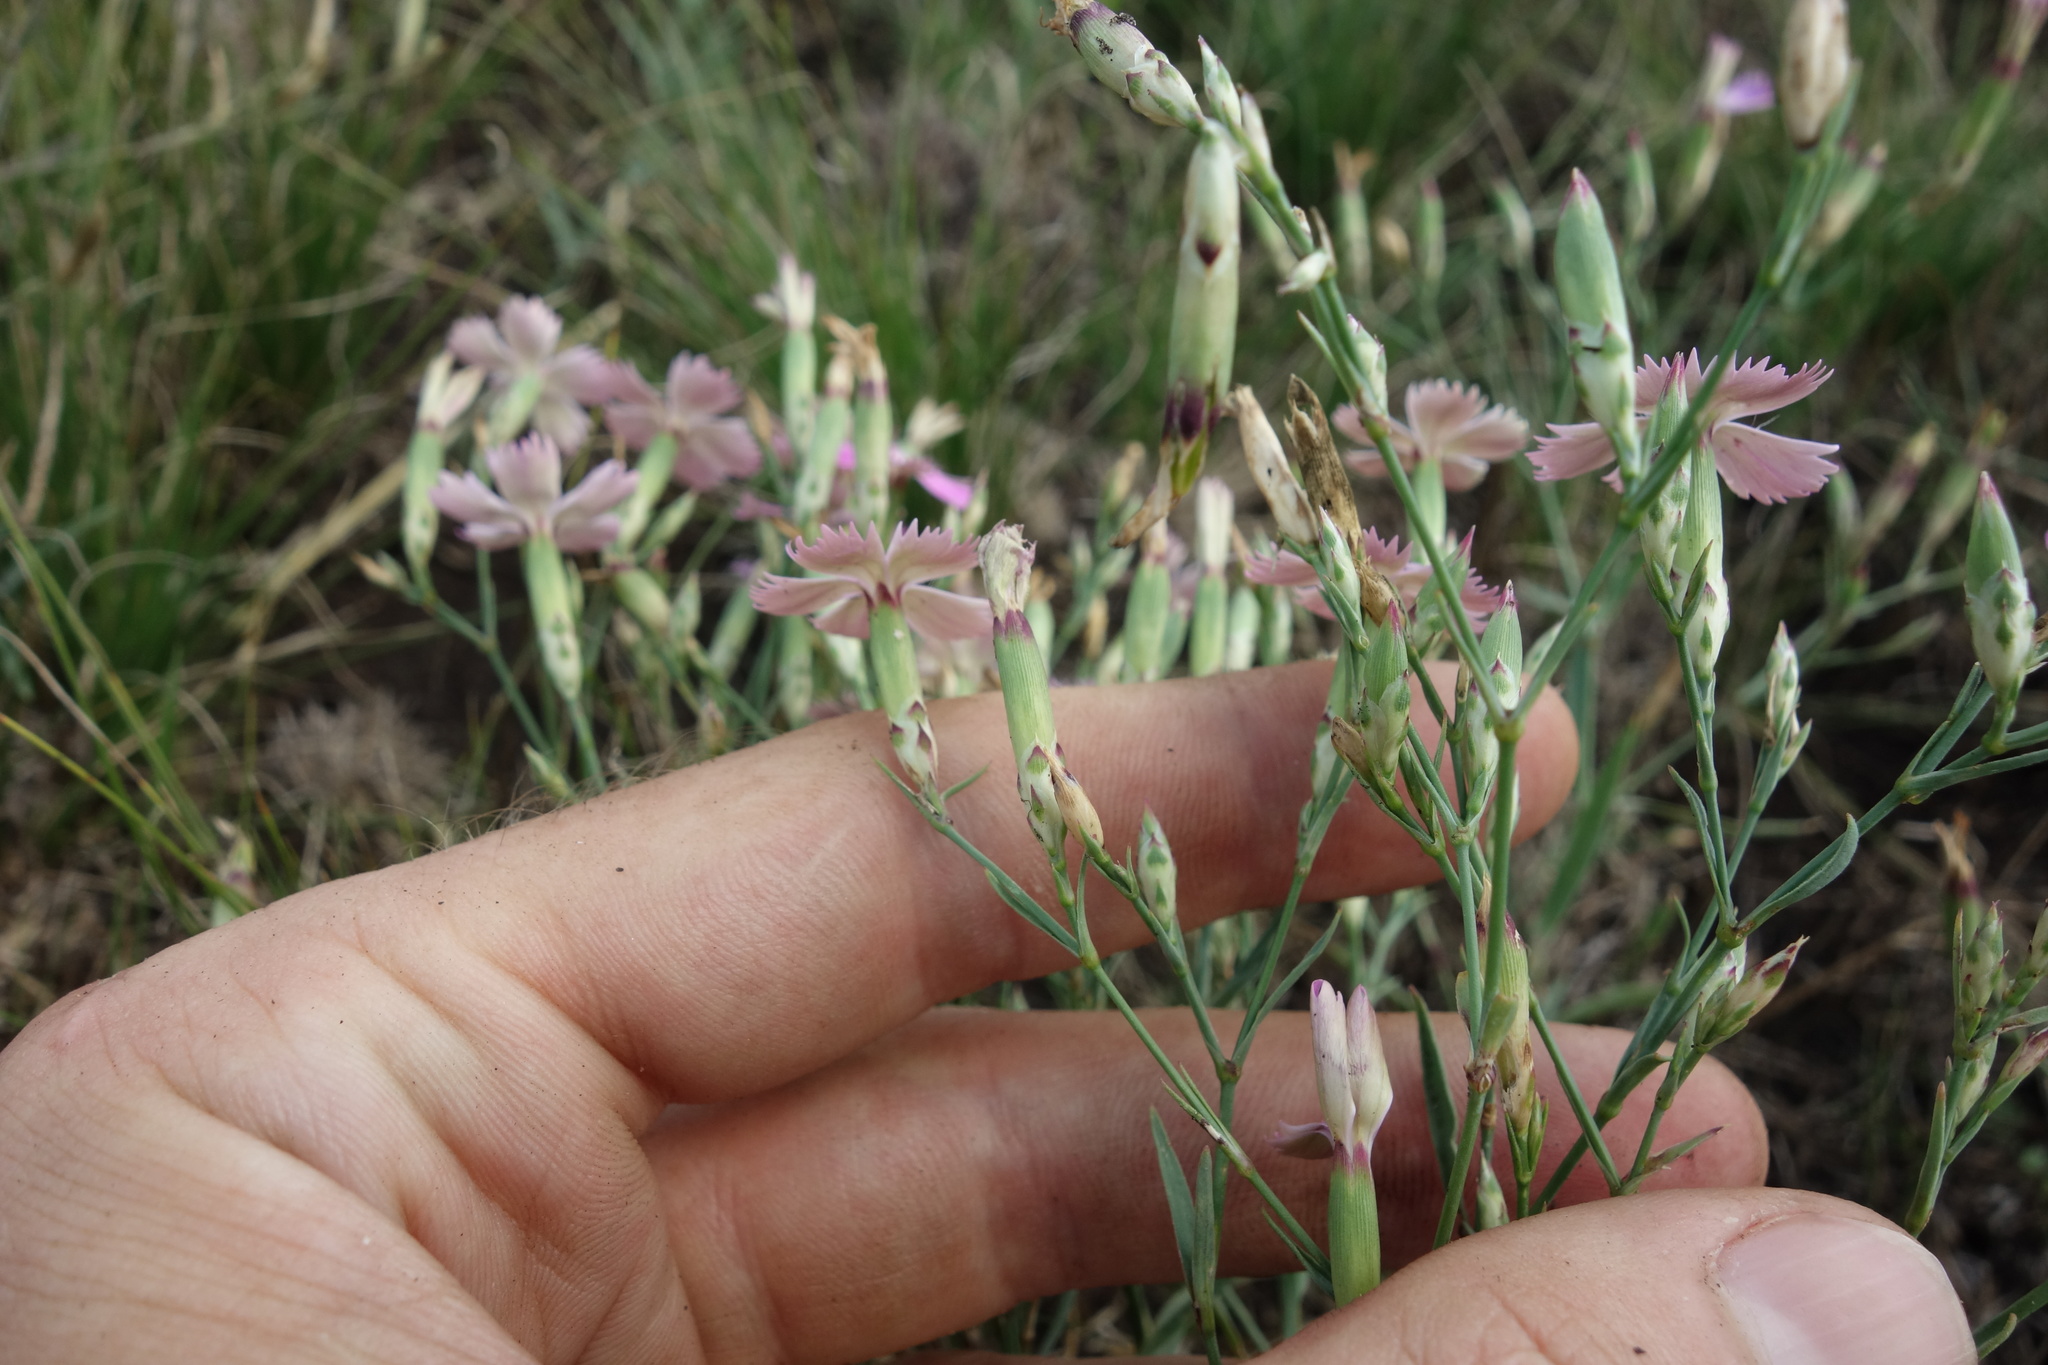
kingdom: Plantae
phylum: Tracheophyta
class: Magnoliopsida
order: Caryophyllales
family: Caryophyllaceae
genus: Dianthus
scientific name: Dianthus campestris
